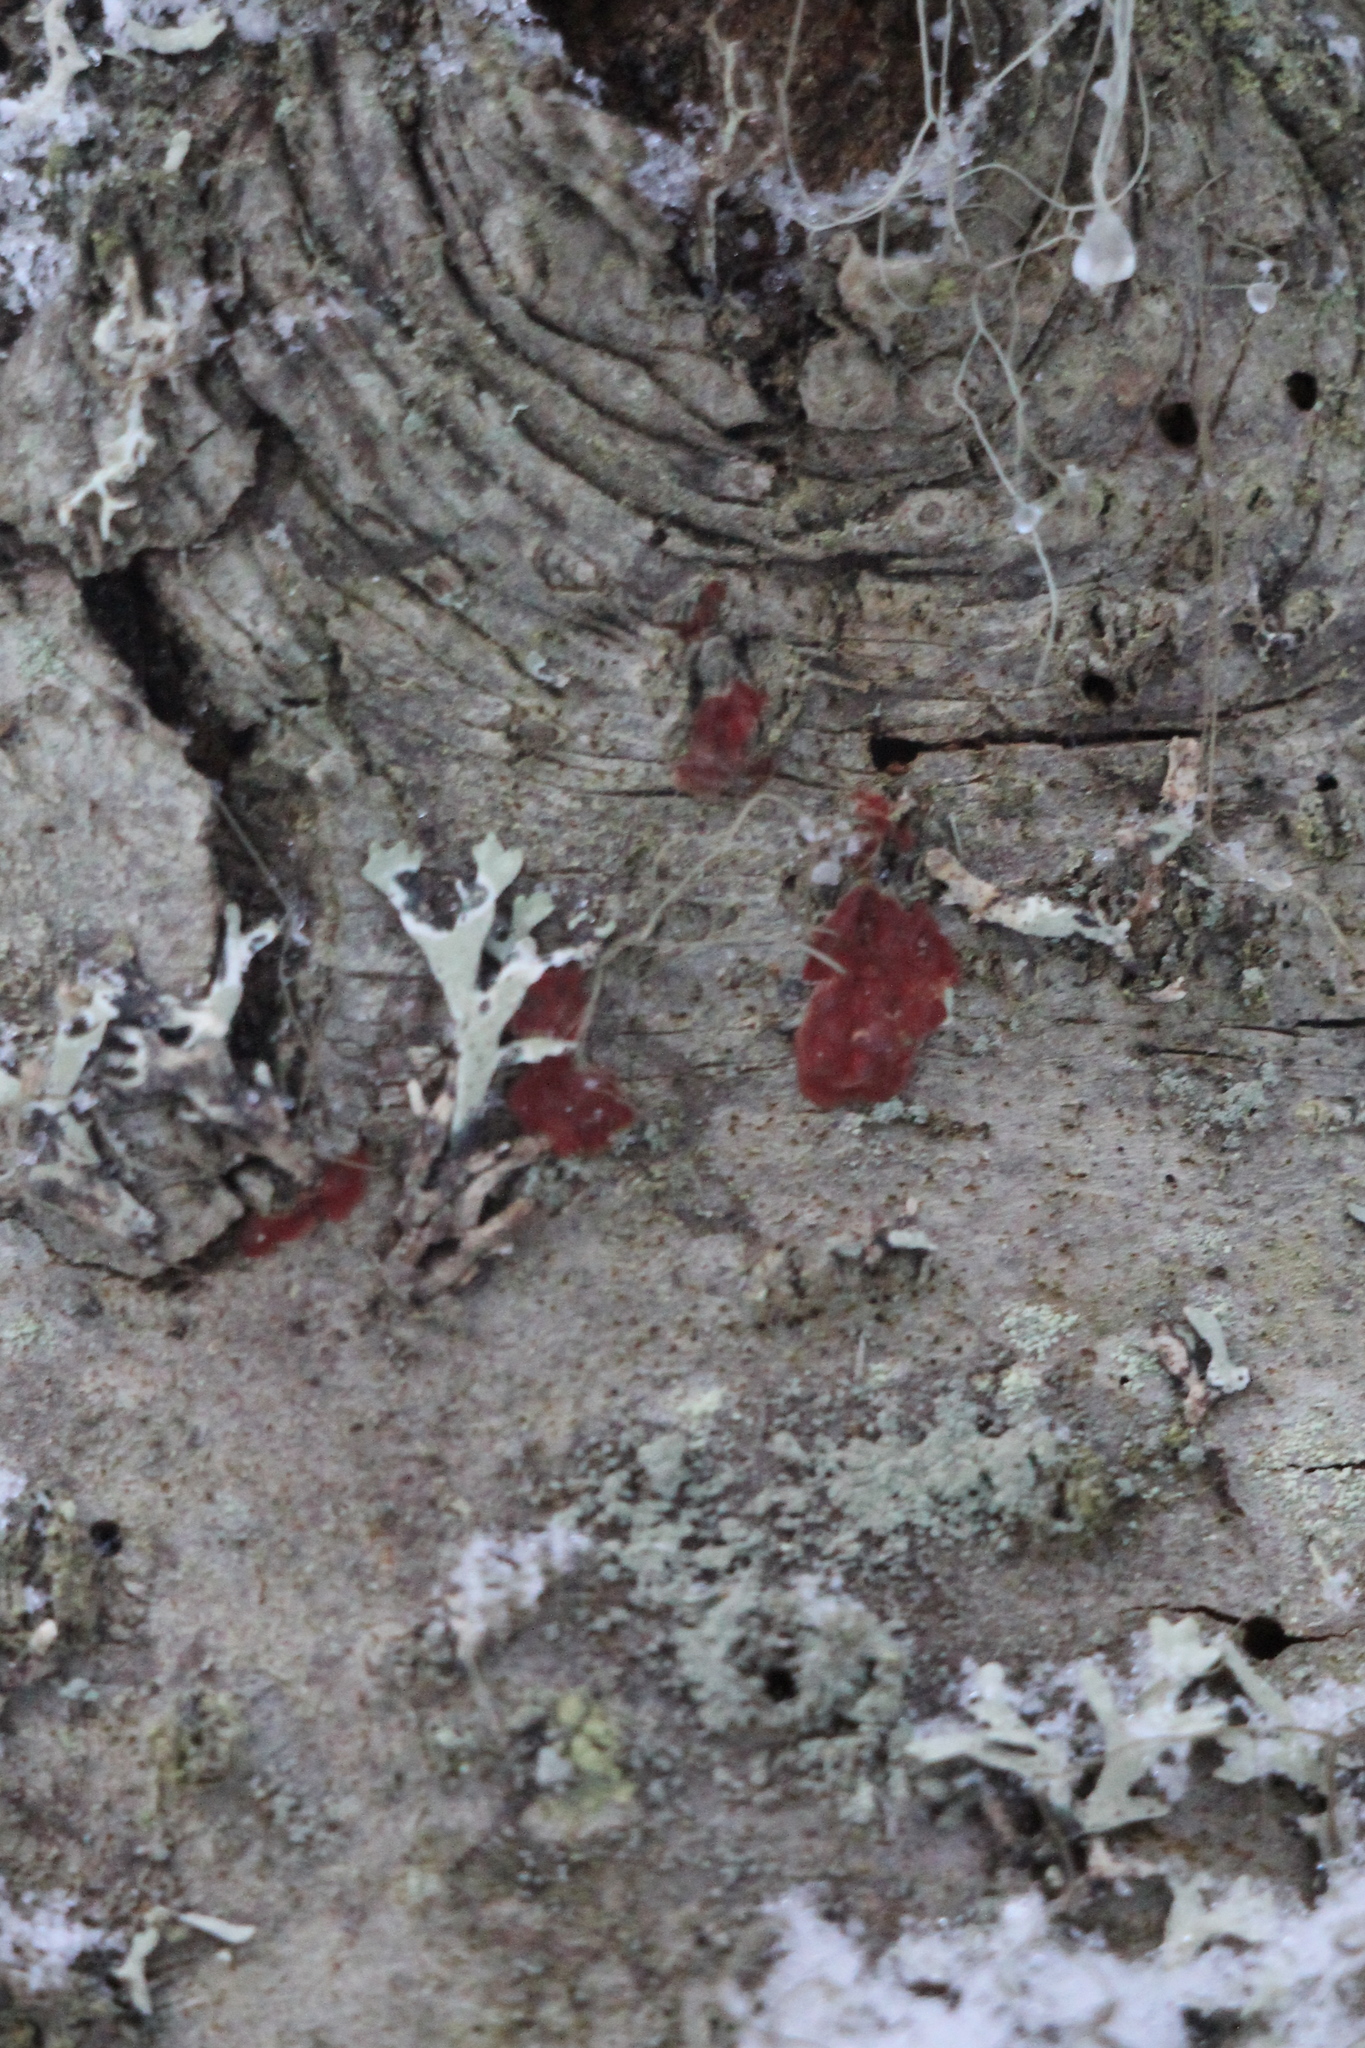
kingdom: Fungi
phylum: Basidiomycota
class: Agaricomycetes
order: Hymenochaetales
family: Hymenochaetaceae
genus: Hymenochaete
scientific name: Hymenochaete cruenta
